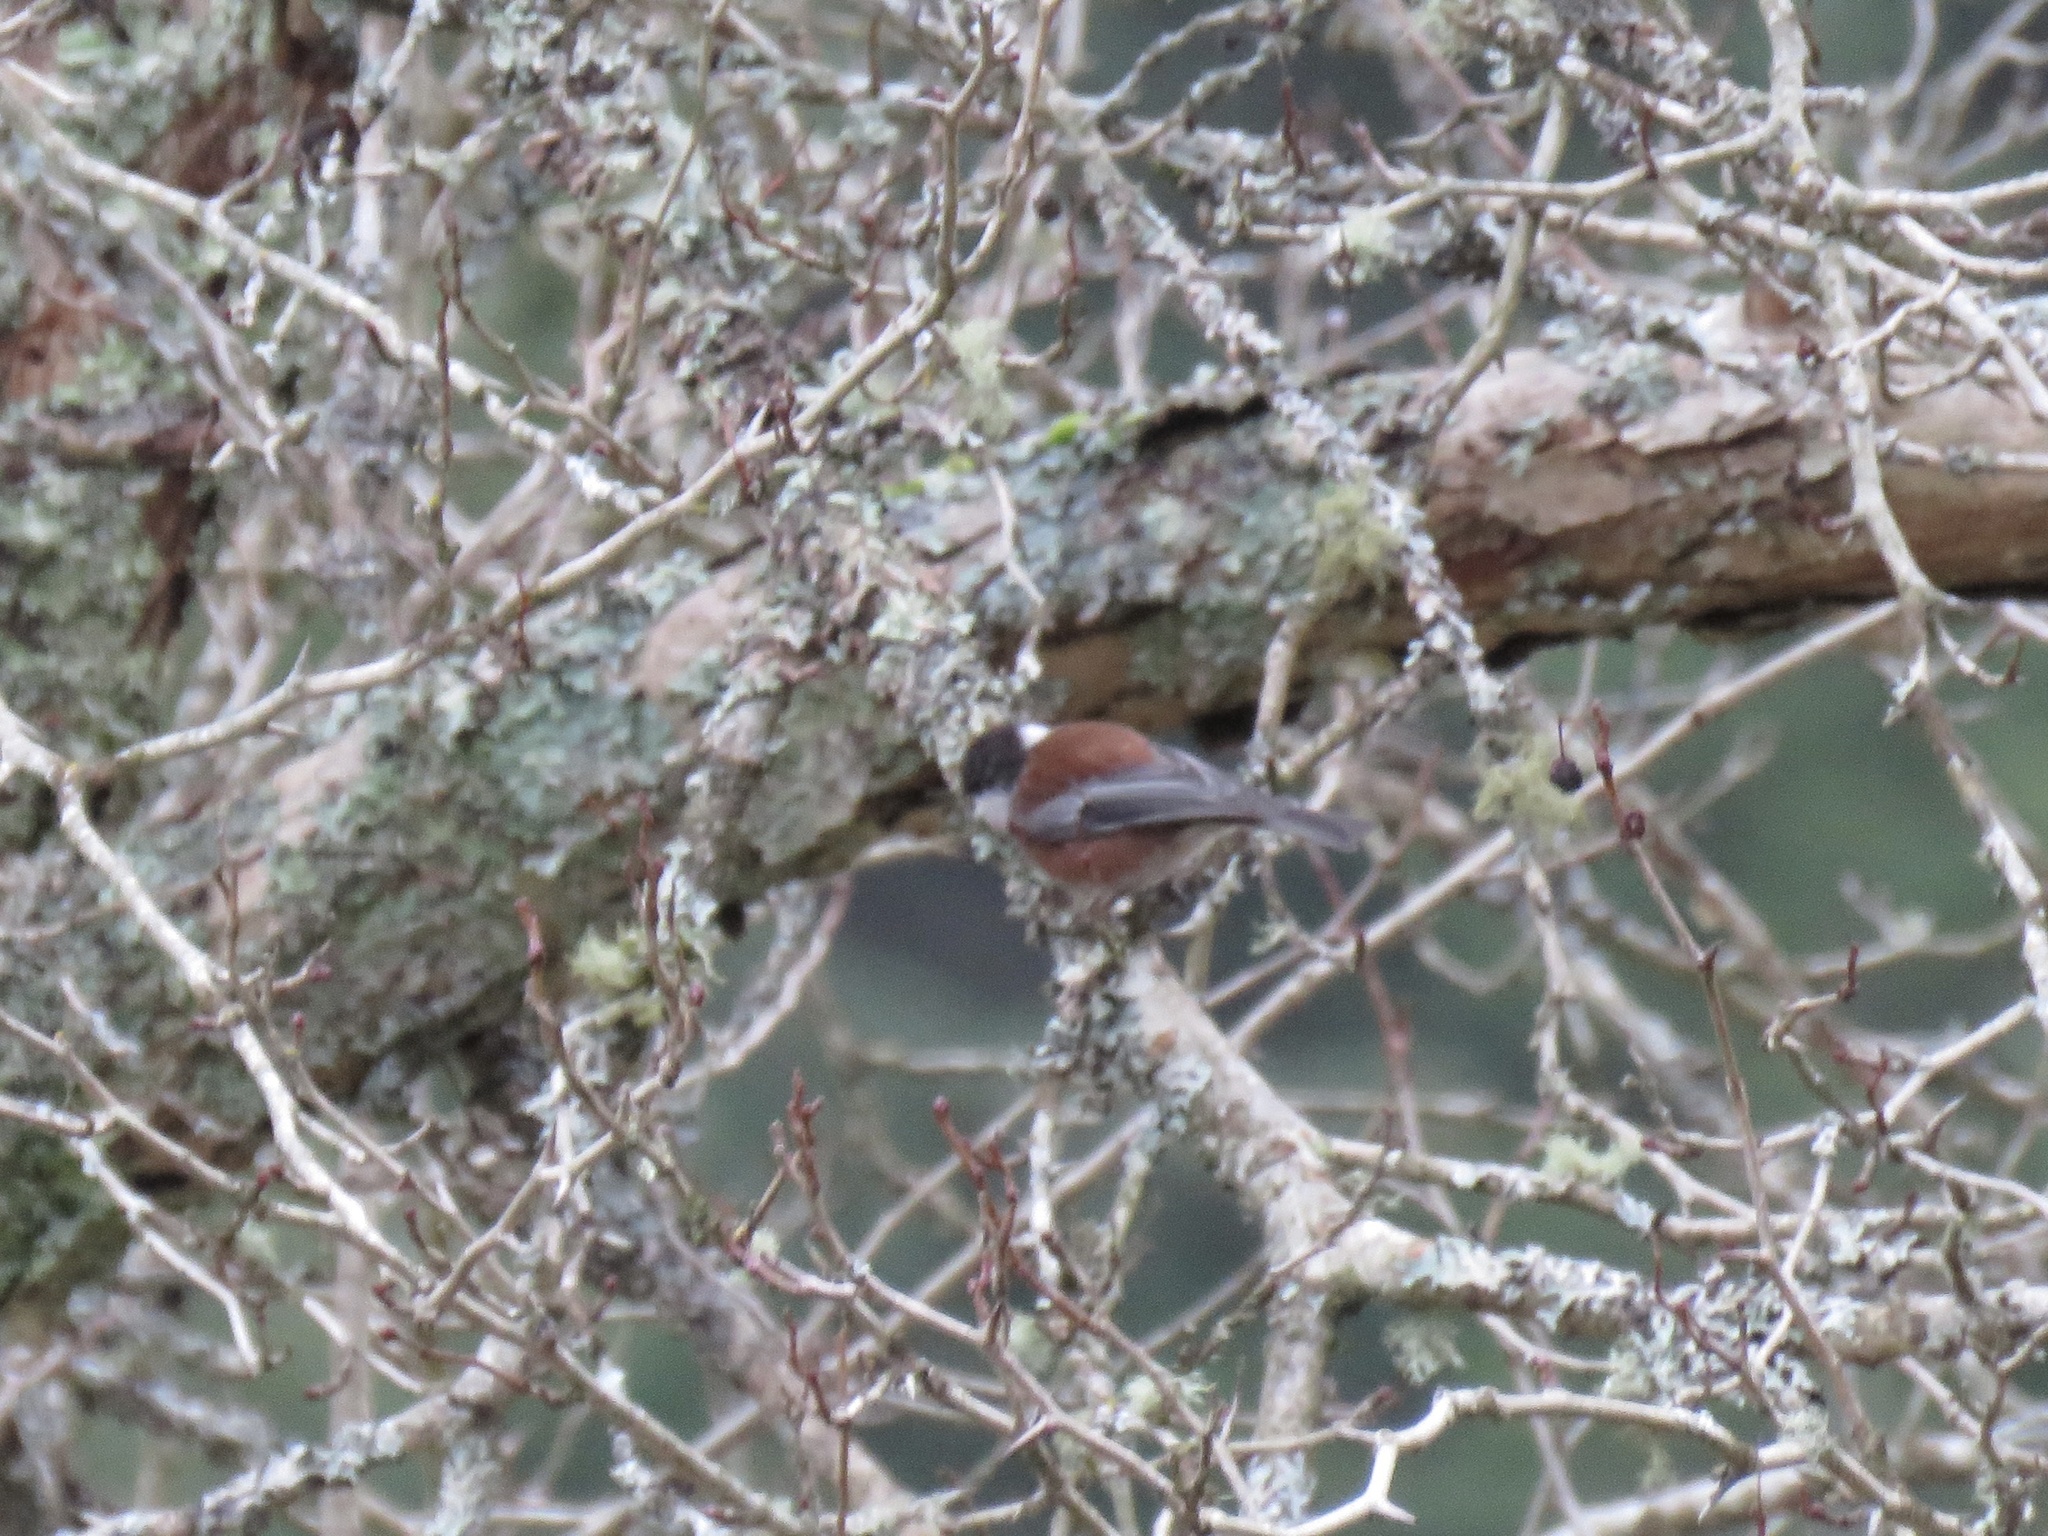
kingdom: Animalia
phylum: Chordata
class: Aves
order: Passeriformes
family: Paridae
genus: Poecile
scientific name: Poecile rufescens
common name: Chestnut-backed chickadee
